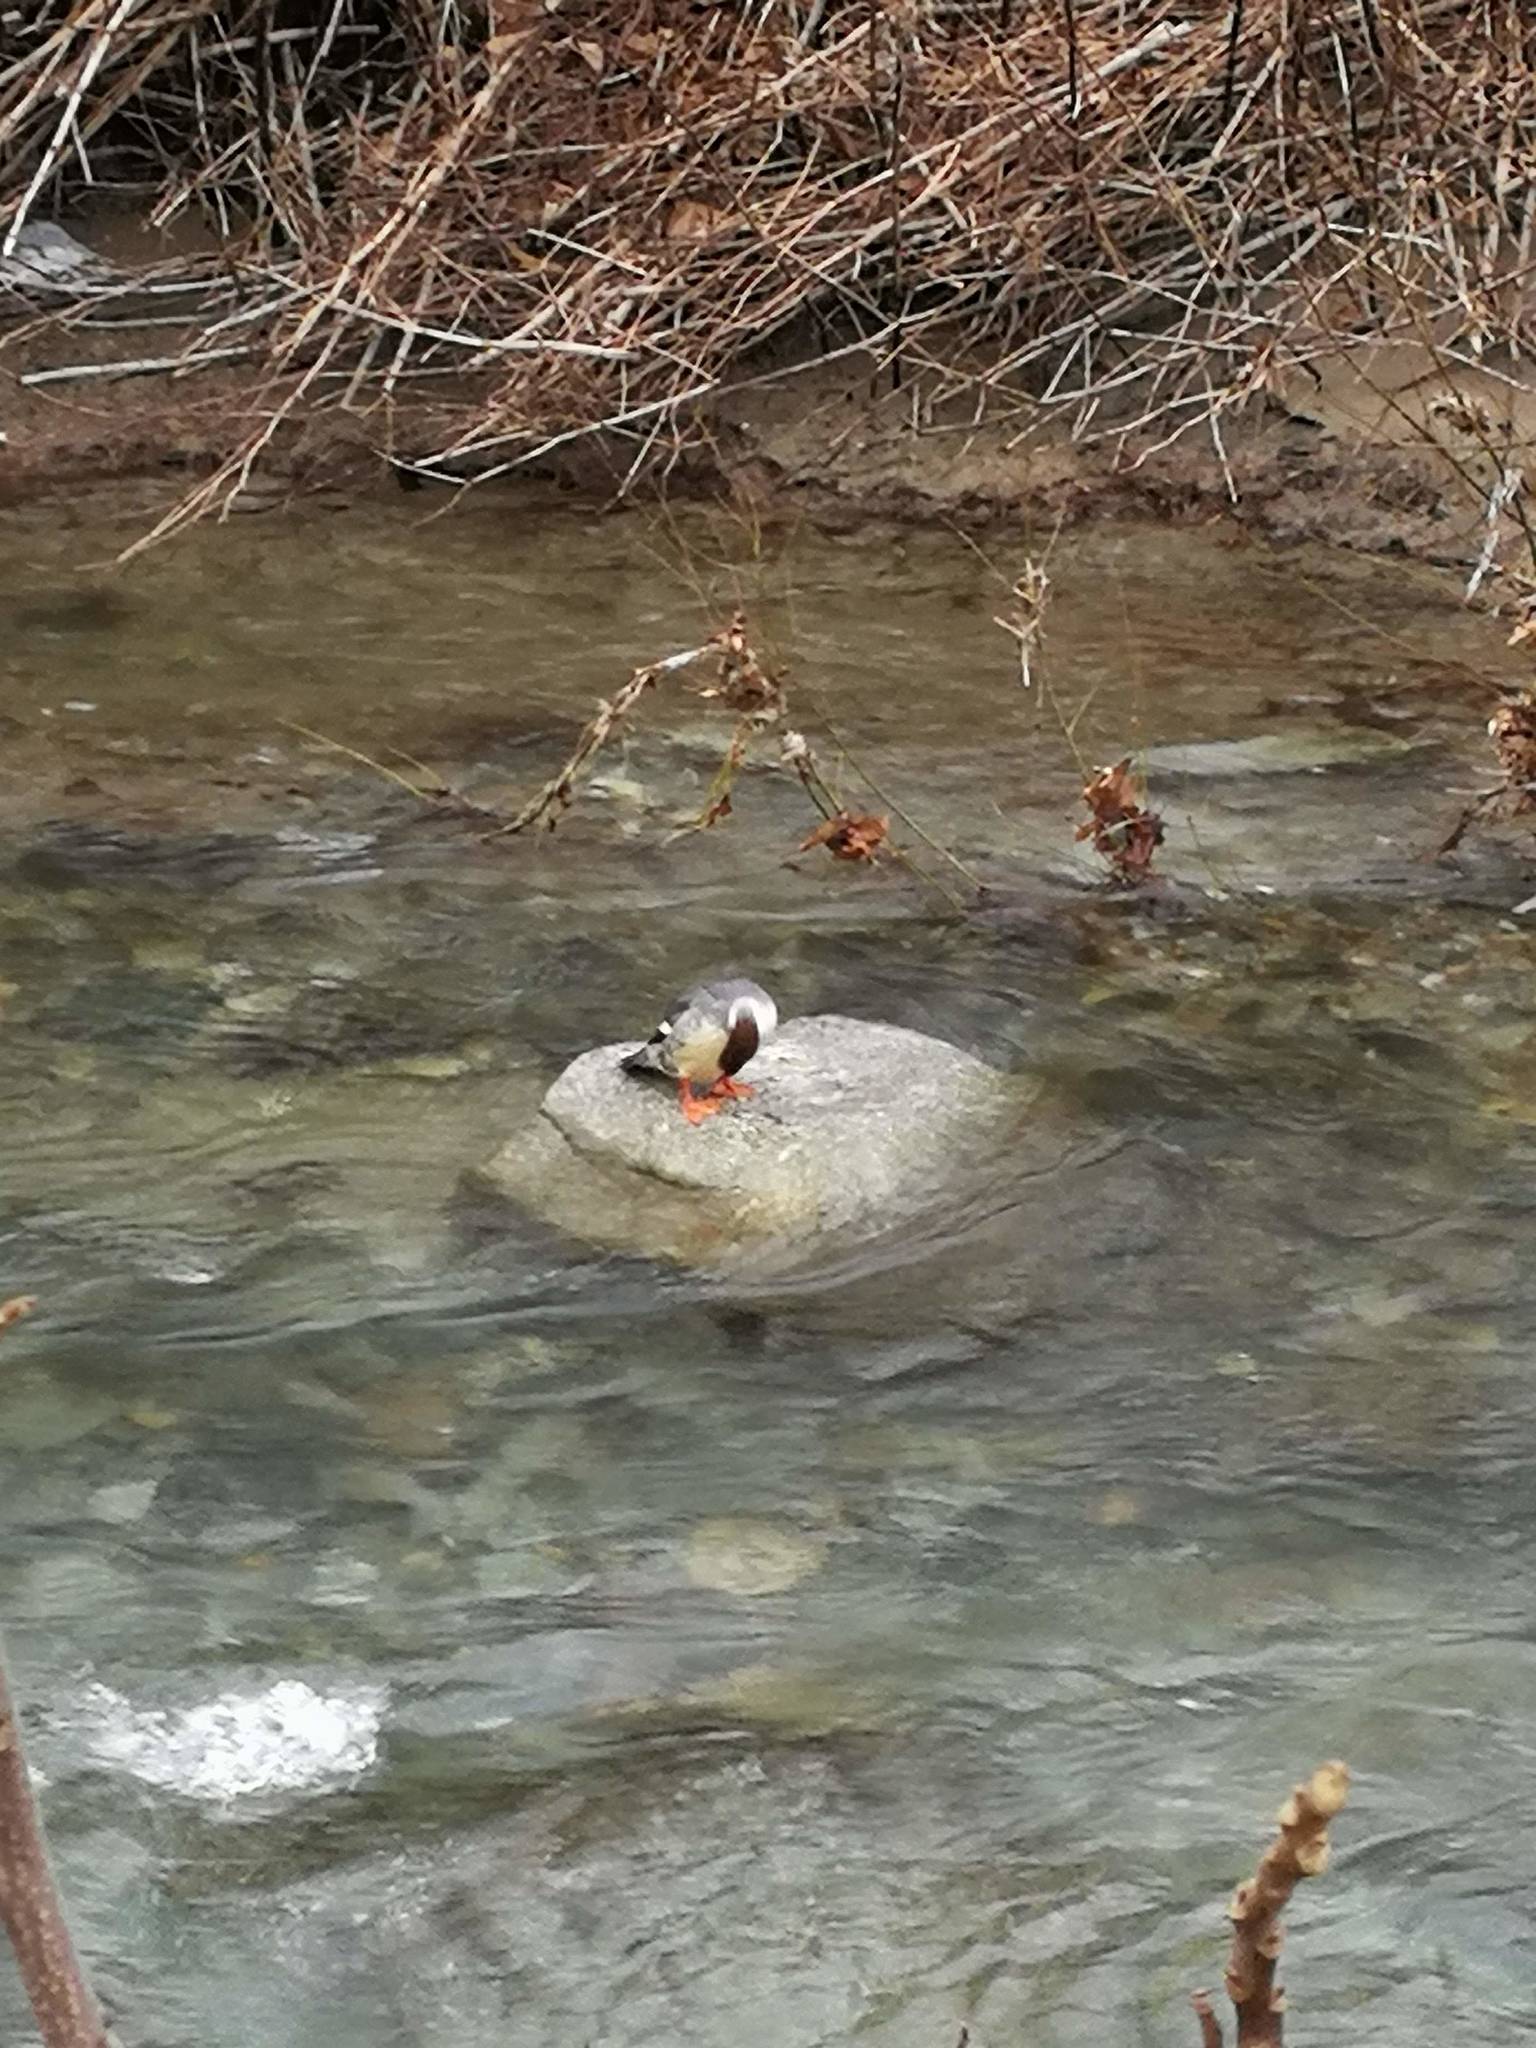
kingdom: Animalia
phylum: Chordata
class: Aves
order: Anseriformes
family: Anatidae
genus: Mergus
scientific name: Mergus merganser
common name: Common merganser
